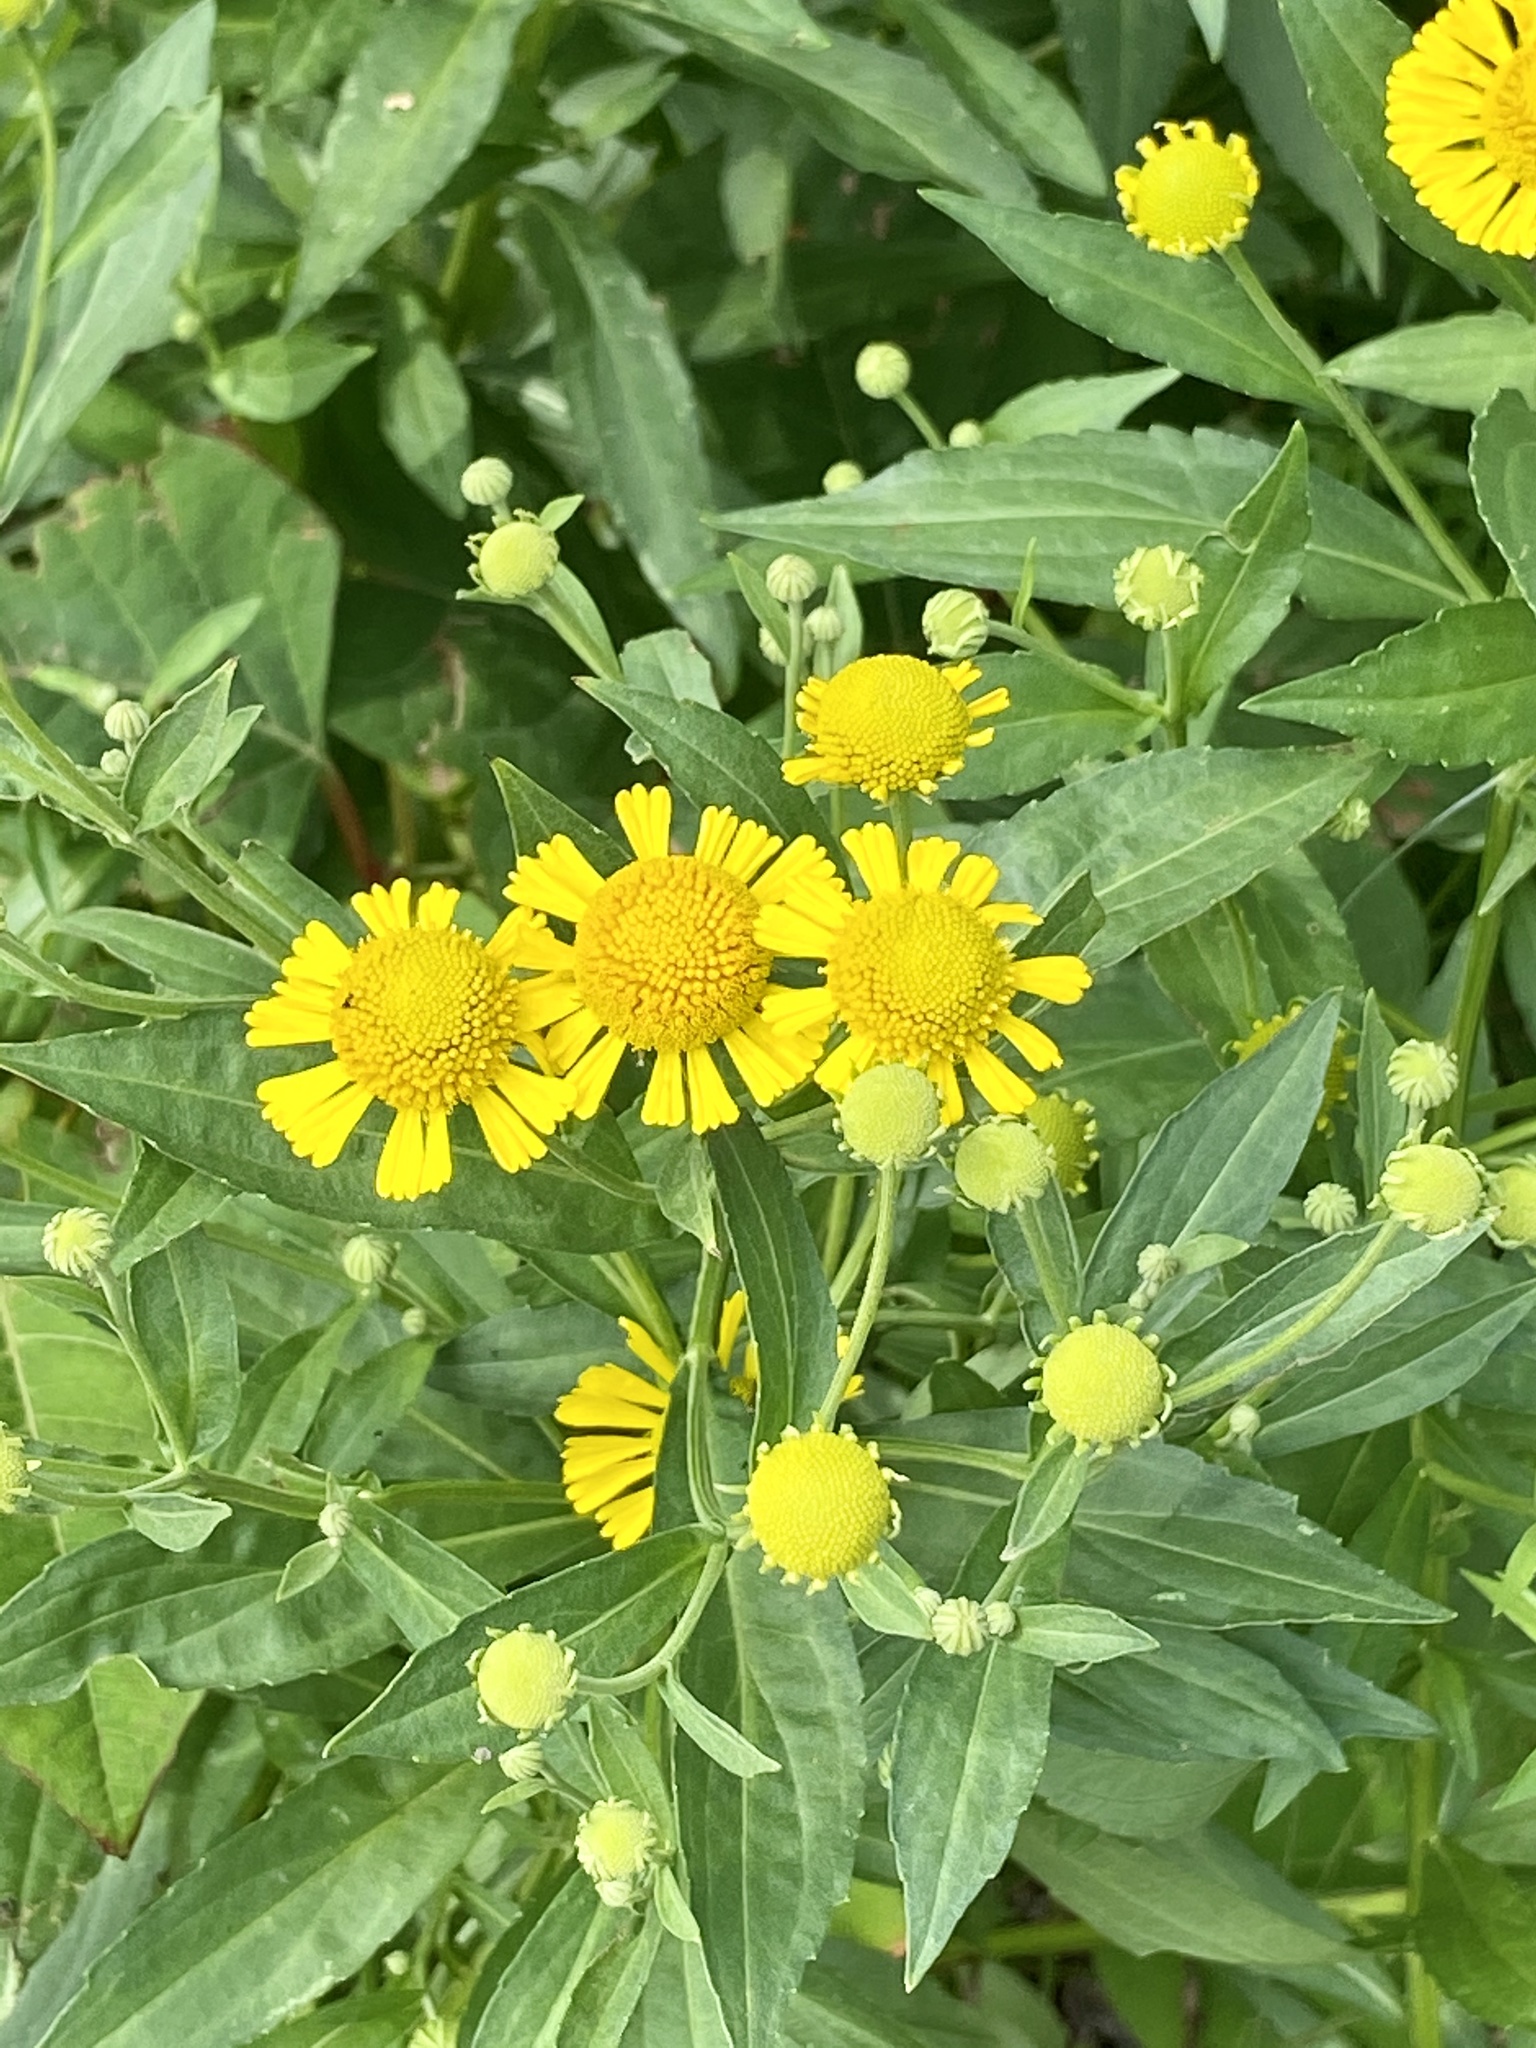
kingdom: Plantae
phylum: Tracheophyta
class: Magnoliopsida
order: Asterales
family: Asteraceae
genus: Helenium
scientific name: Helenium autumnale
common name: Sneezeweed
